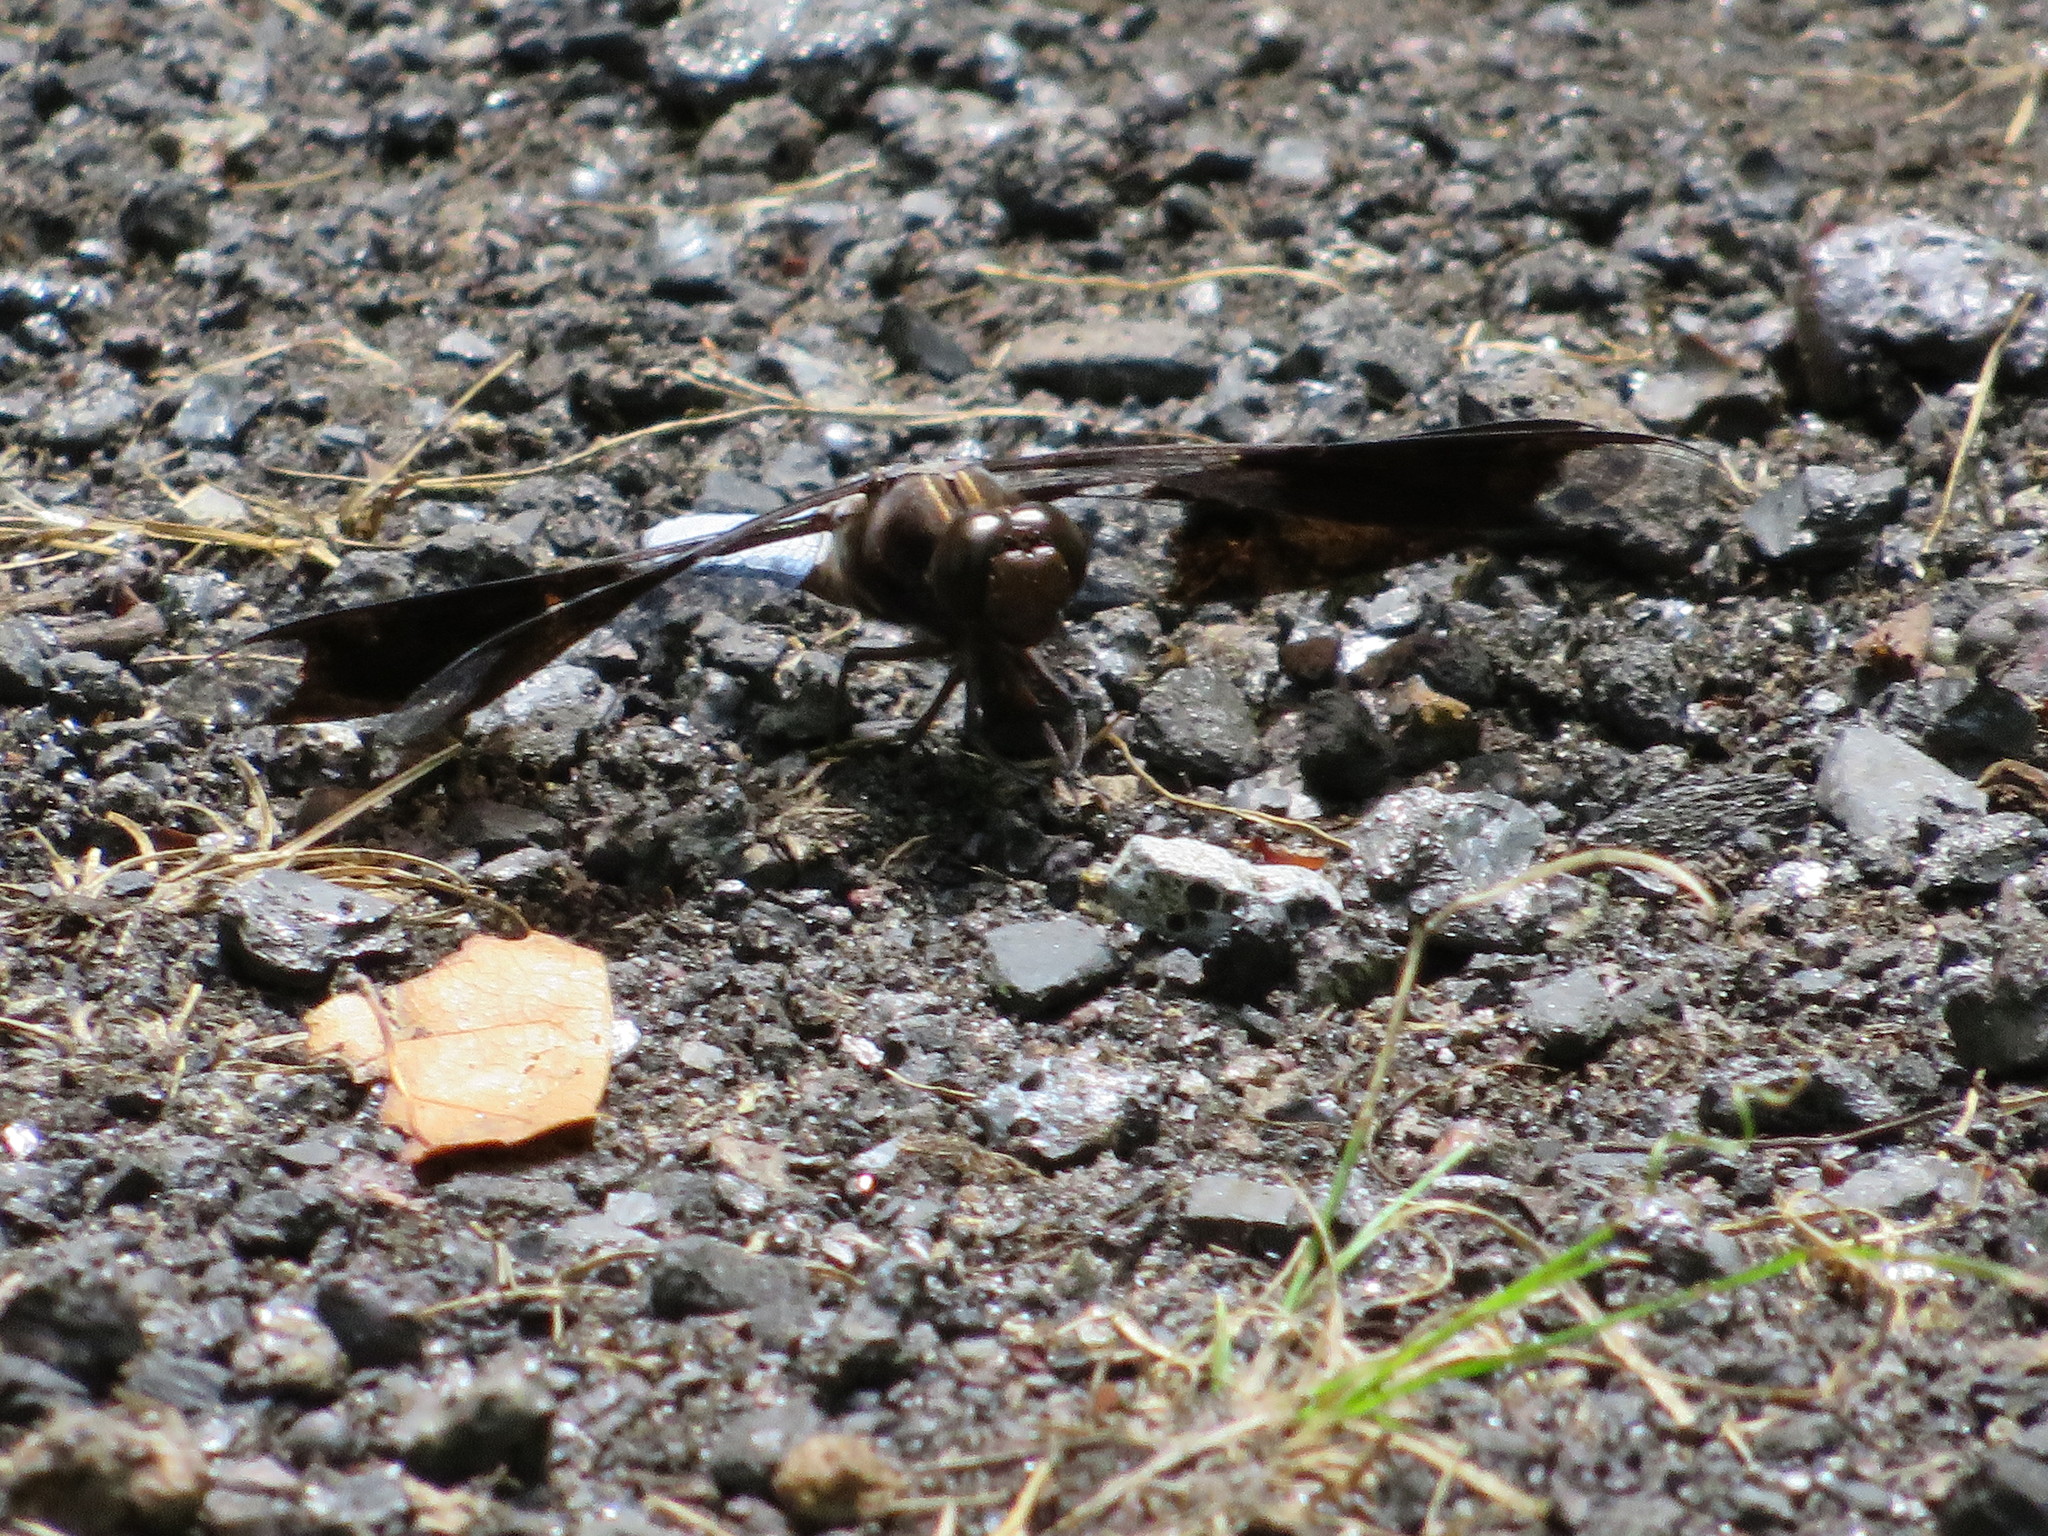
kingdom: Animalia
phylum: Arthropoda
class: Insecta
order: Odonata
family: Libellulidae
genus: Plathemis
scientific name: Plathemis lydia
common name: Common whitetail
